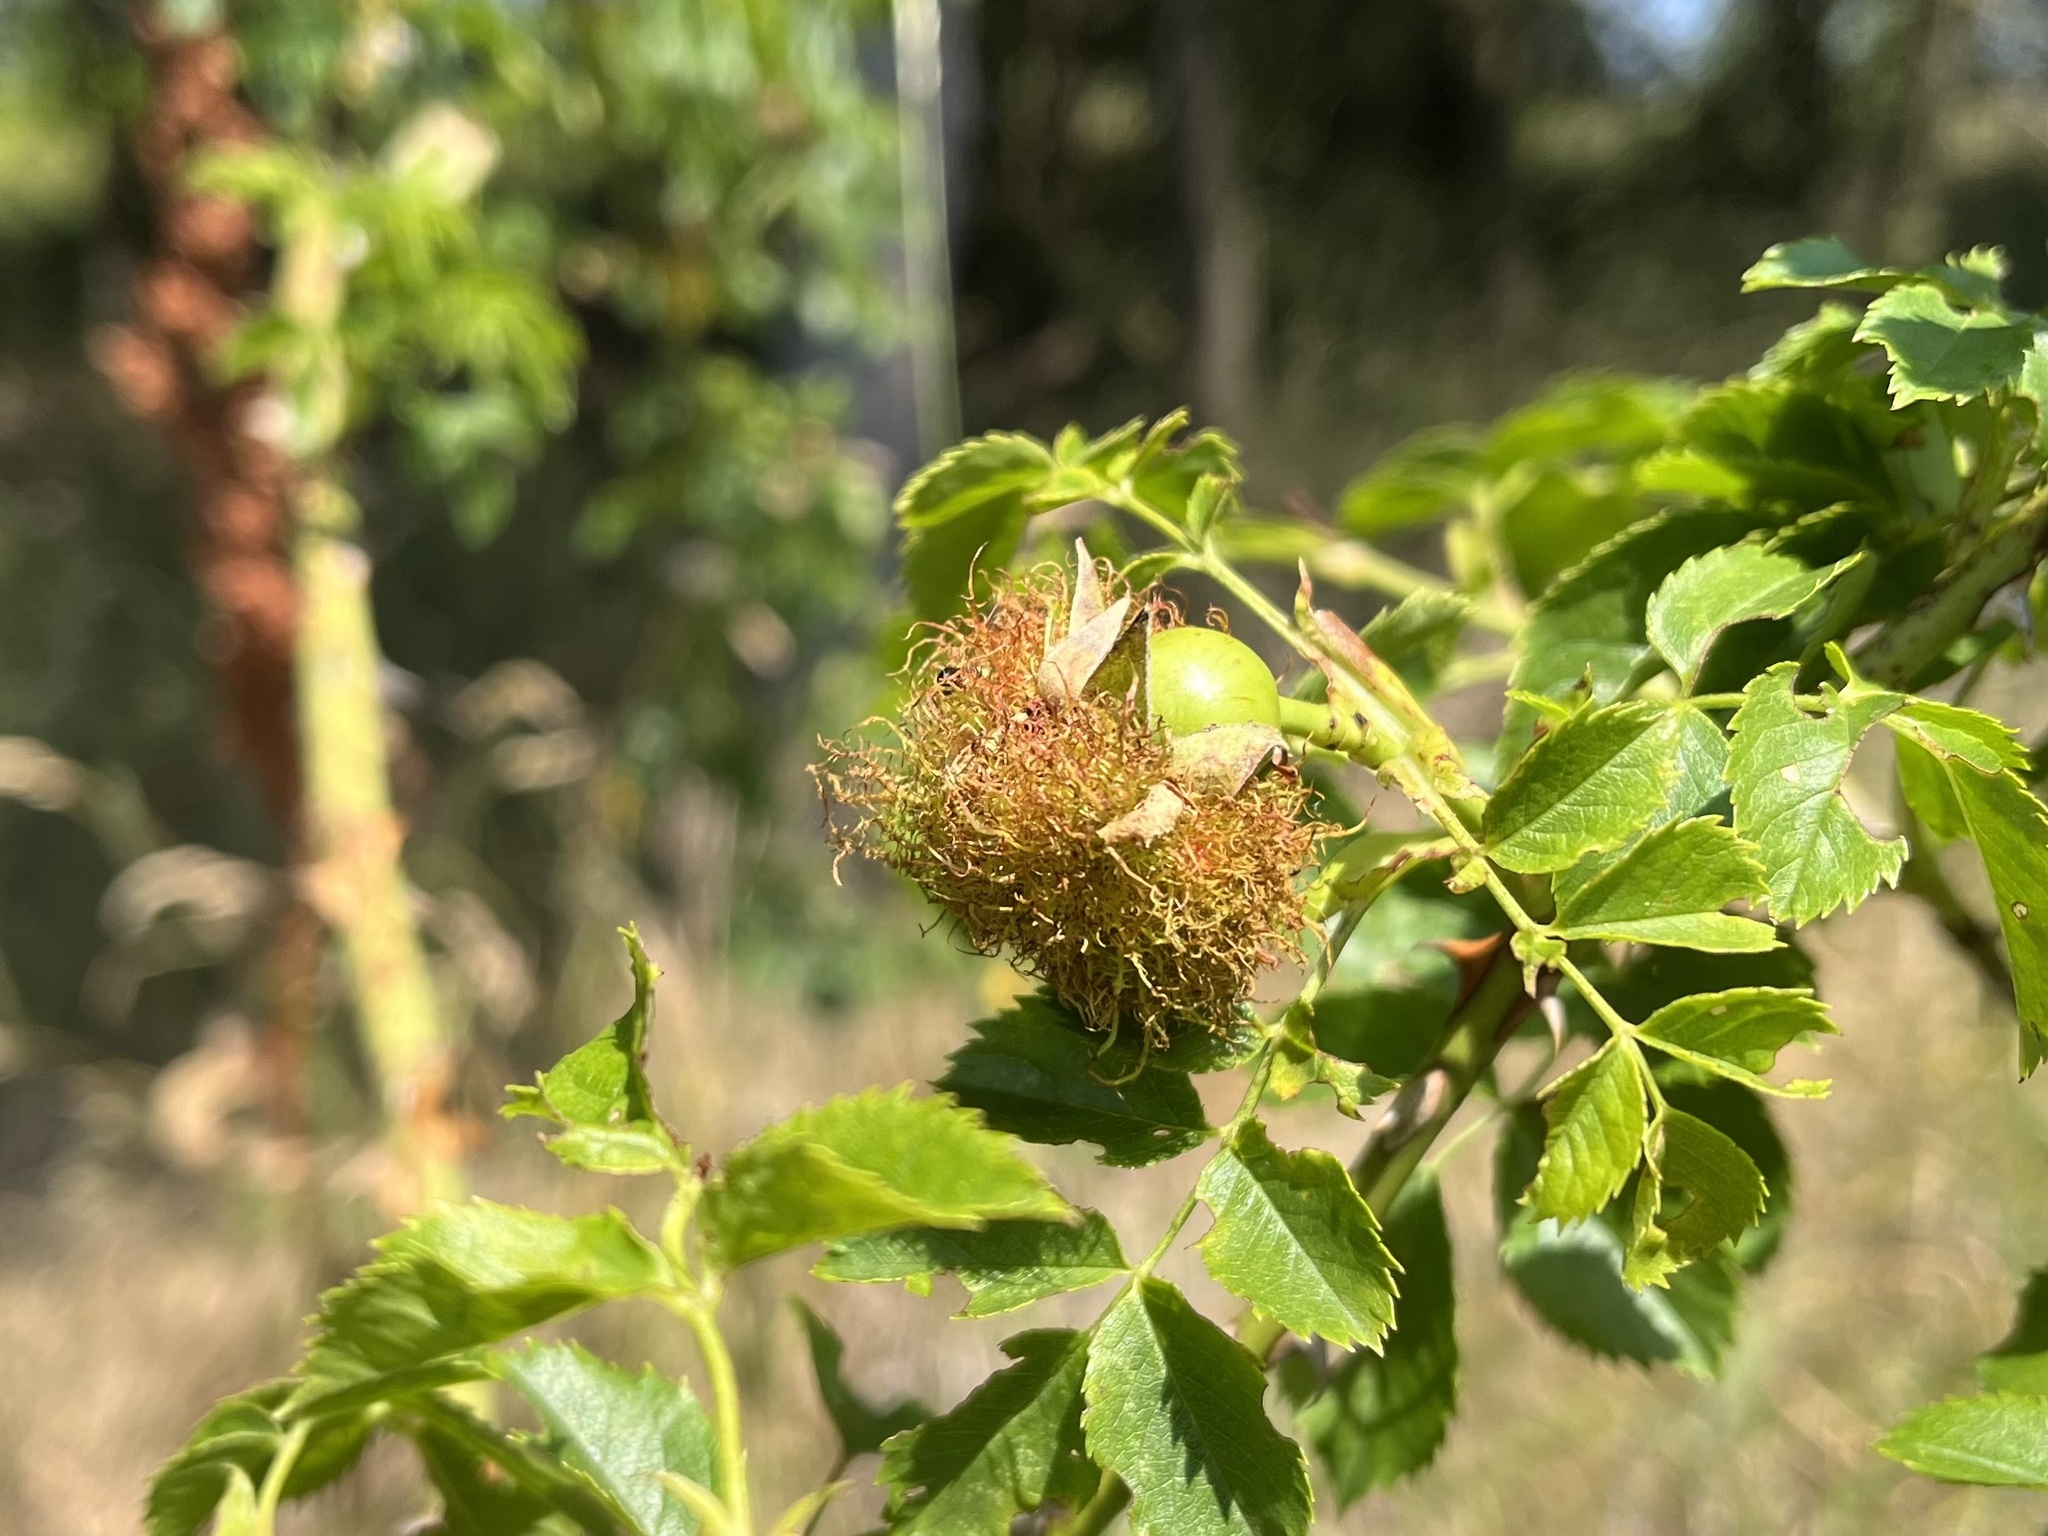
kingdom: Animalia
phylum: Arthropoda
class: Insecta
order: Hymenoptera
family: Cynipidae
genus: Diplolepis
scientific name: Diplolepis rosae
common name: Bedeguar gall
